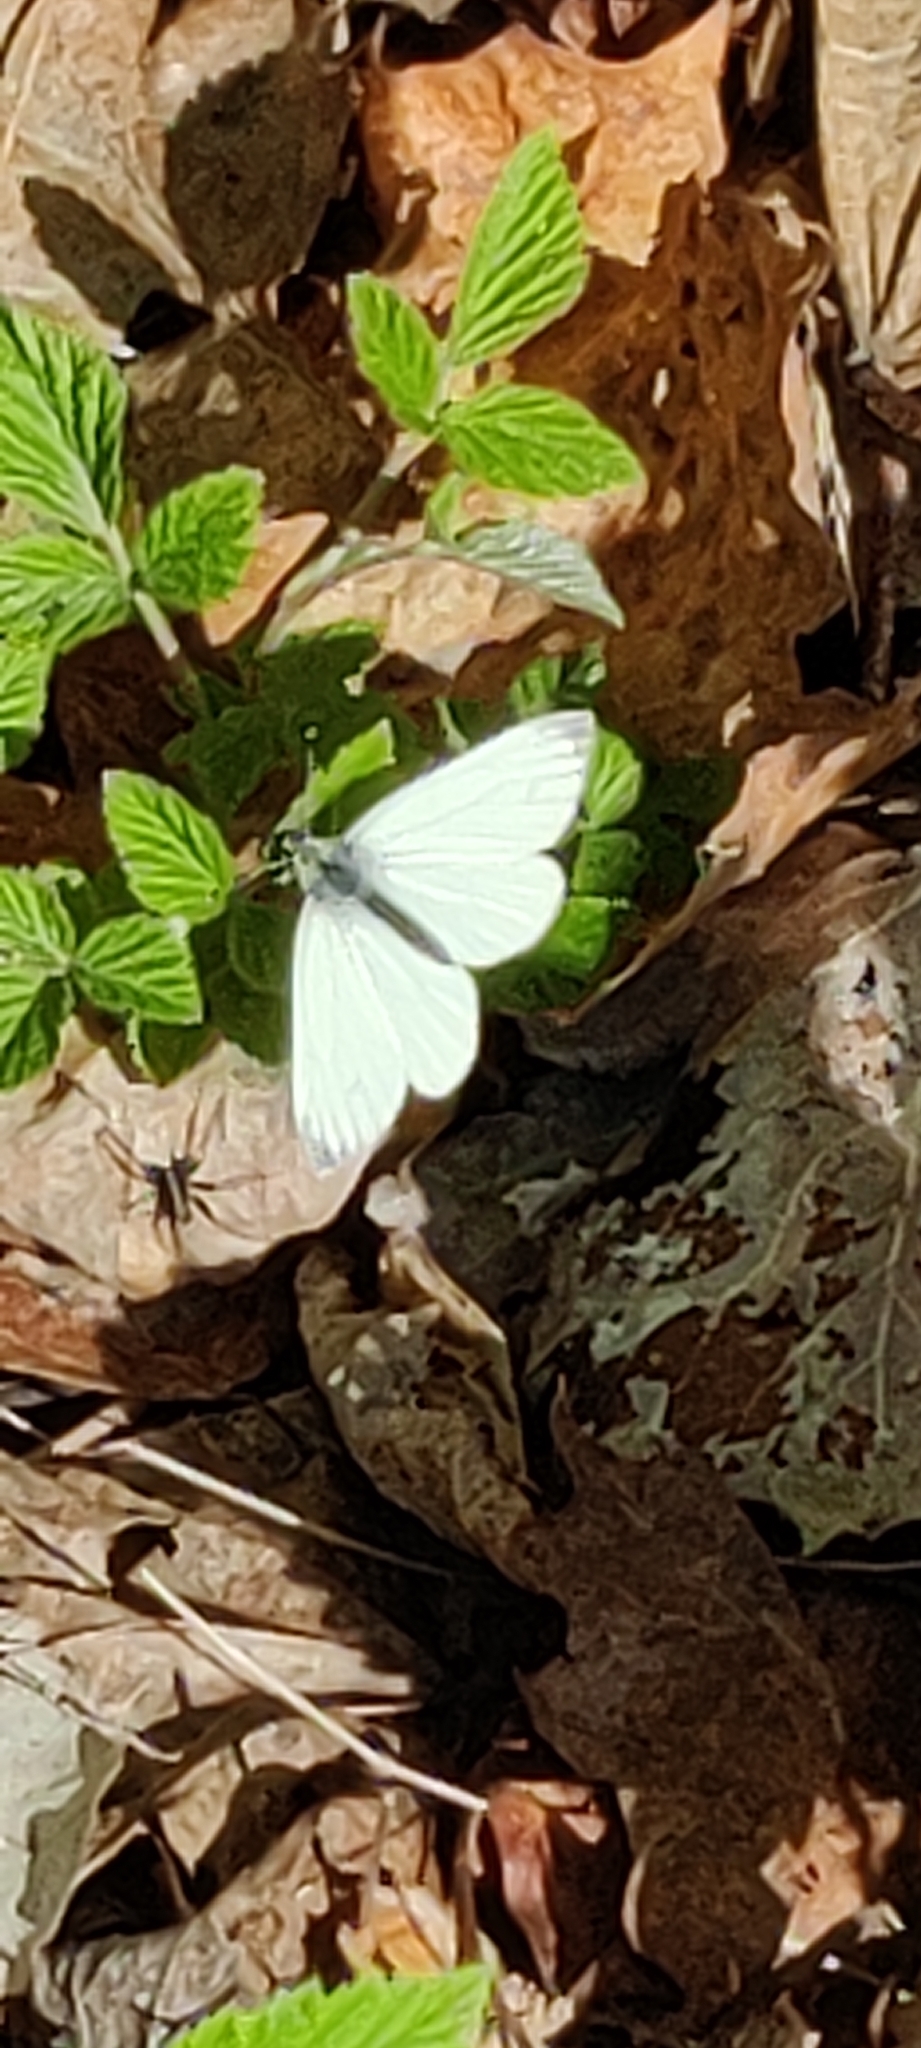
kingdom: Animalia
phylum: Arthropoda
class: Insecta
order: Lepidoptera
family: Pieridae
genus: Pieris
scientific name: Pieris napi
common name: Green-veined white
